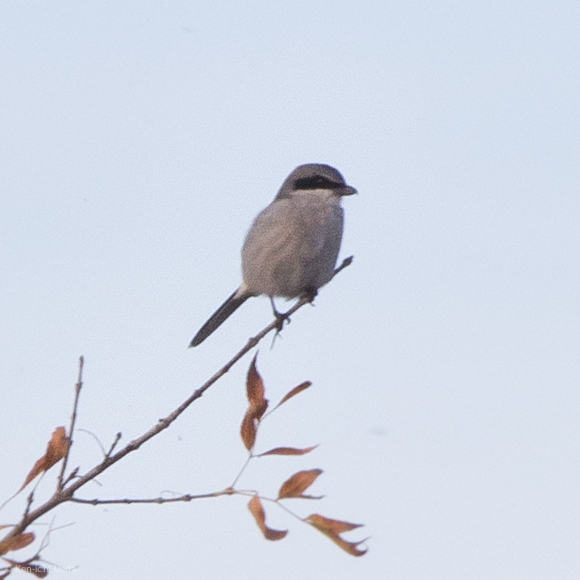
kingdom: Animalia
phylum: Chordata
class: Aves
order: Passeriformes
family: Laniidae
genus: Lanius
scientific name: Lanius ludovicianus
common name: Loggerhead shrike
